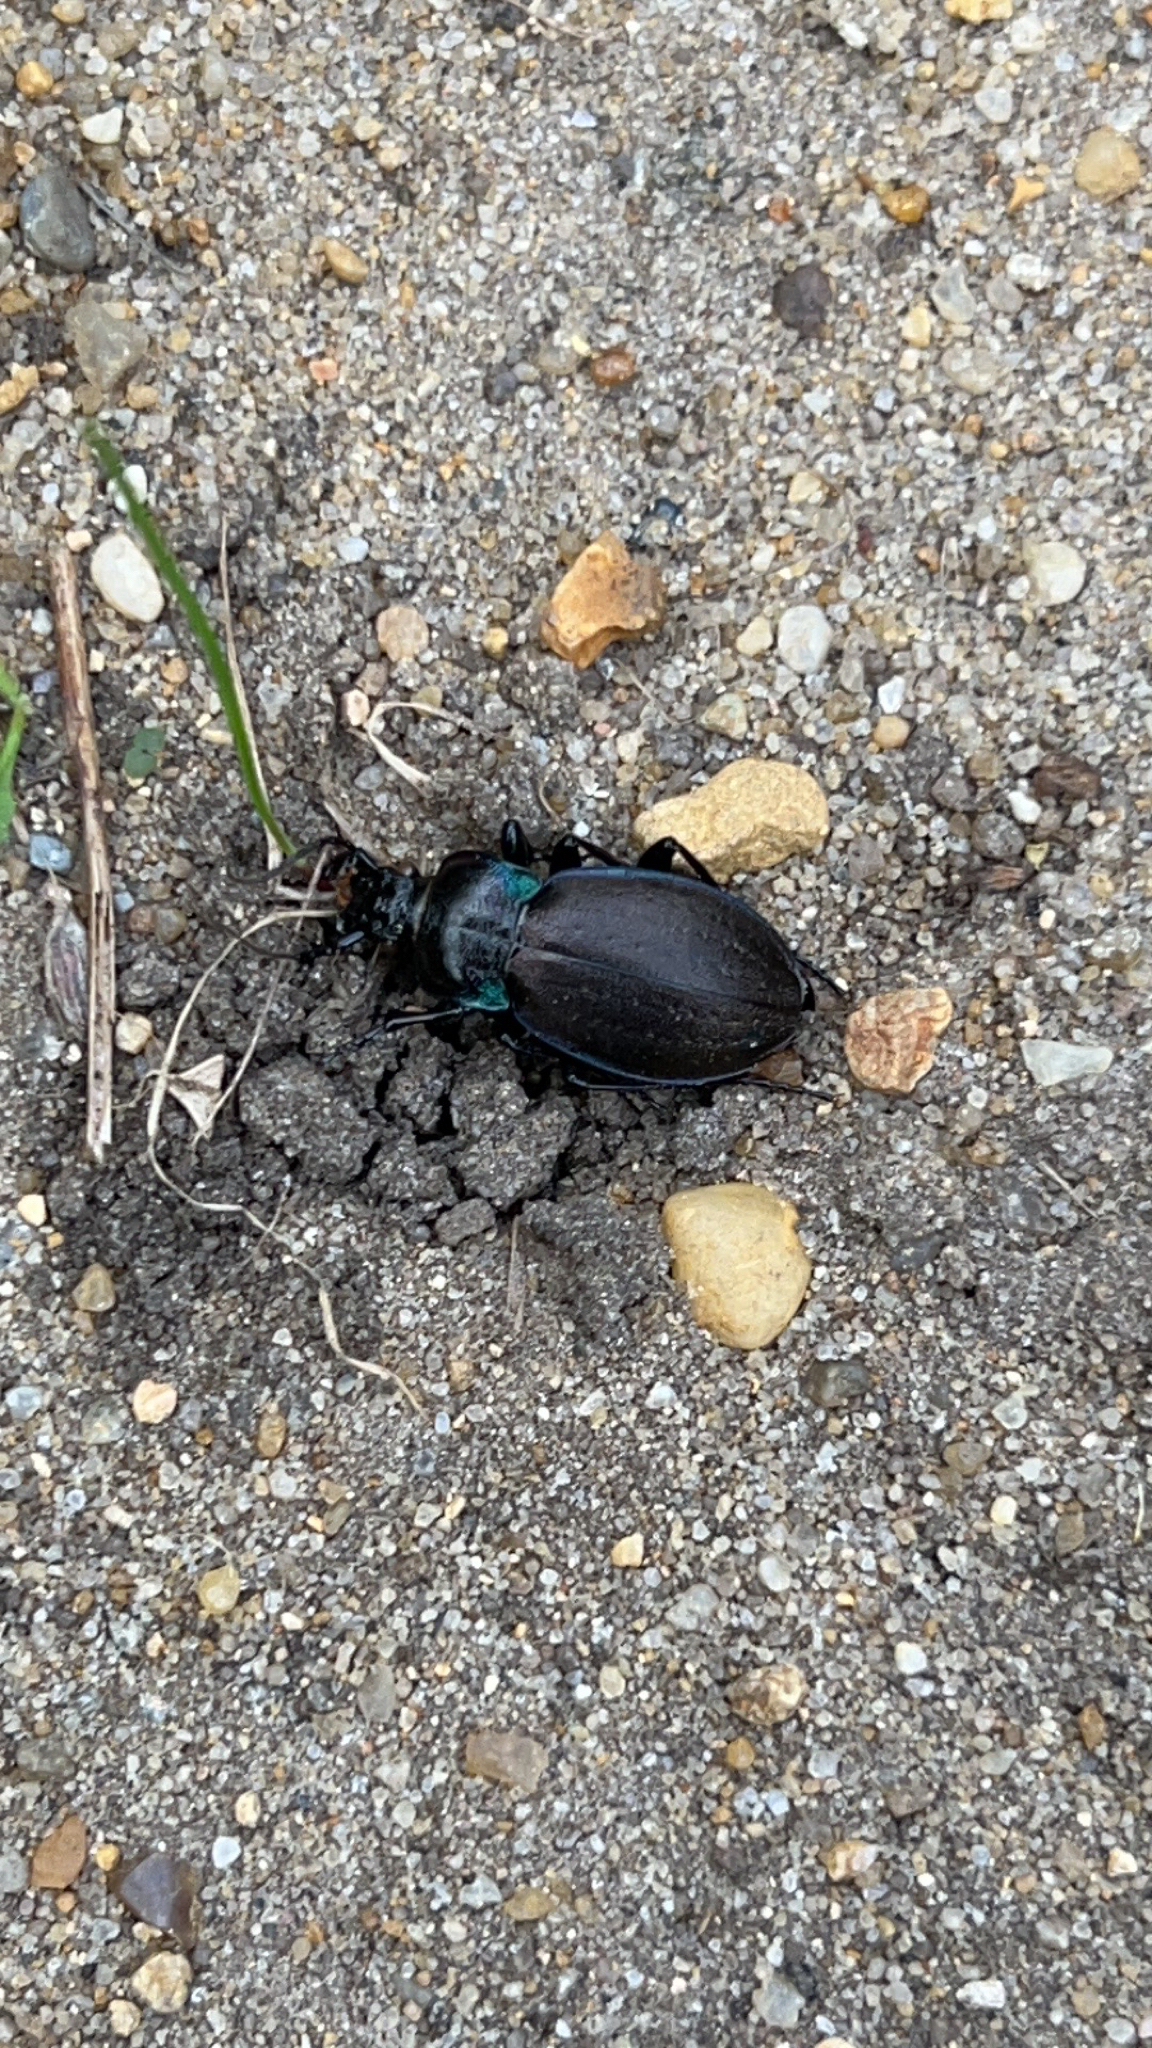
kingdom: Animalia
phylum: Arthropoda
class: Insecta
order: Coleoptera
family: Carabidae
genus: Carabus
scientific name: Carabus nemoralis
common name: European ground beetle
